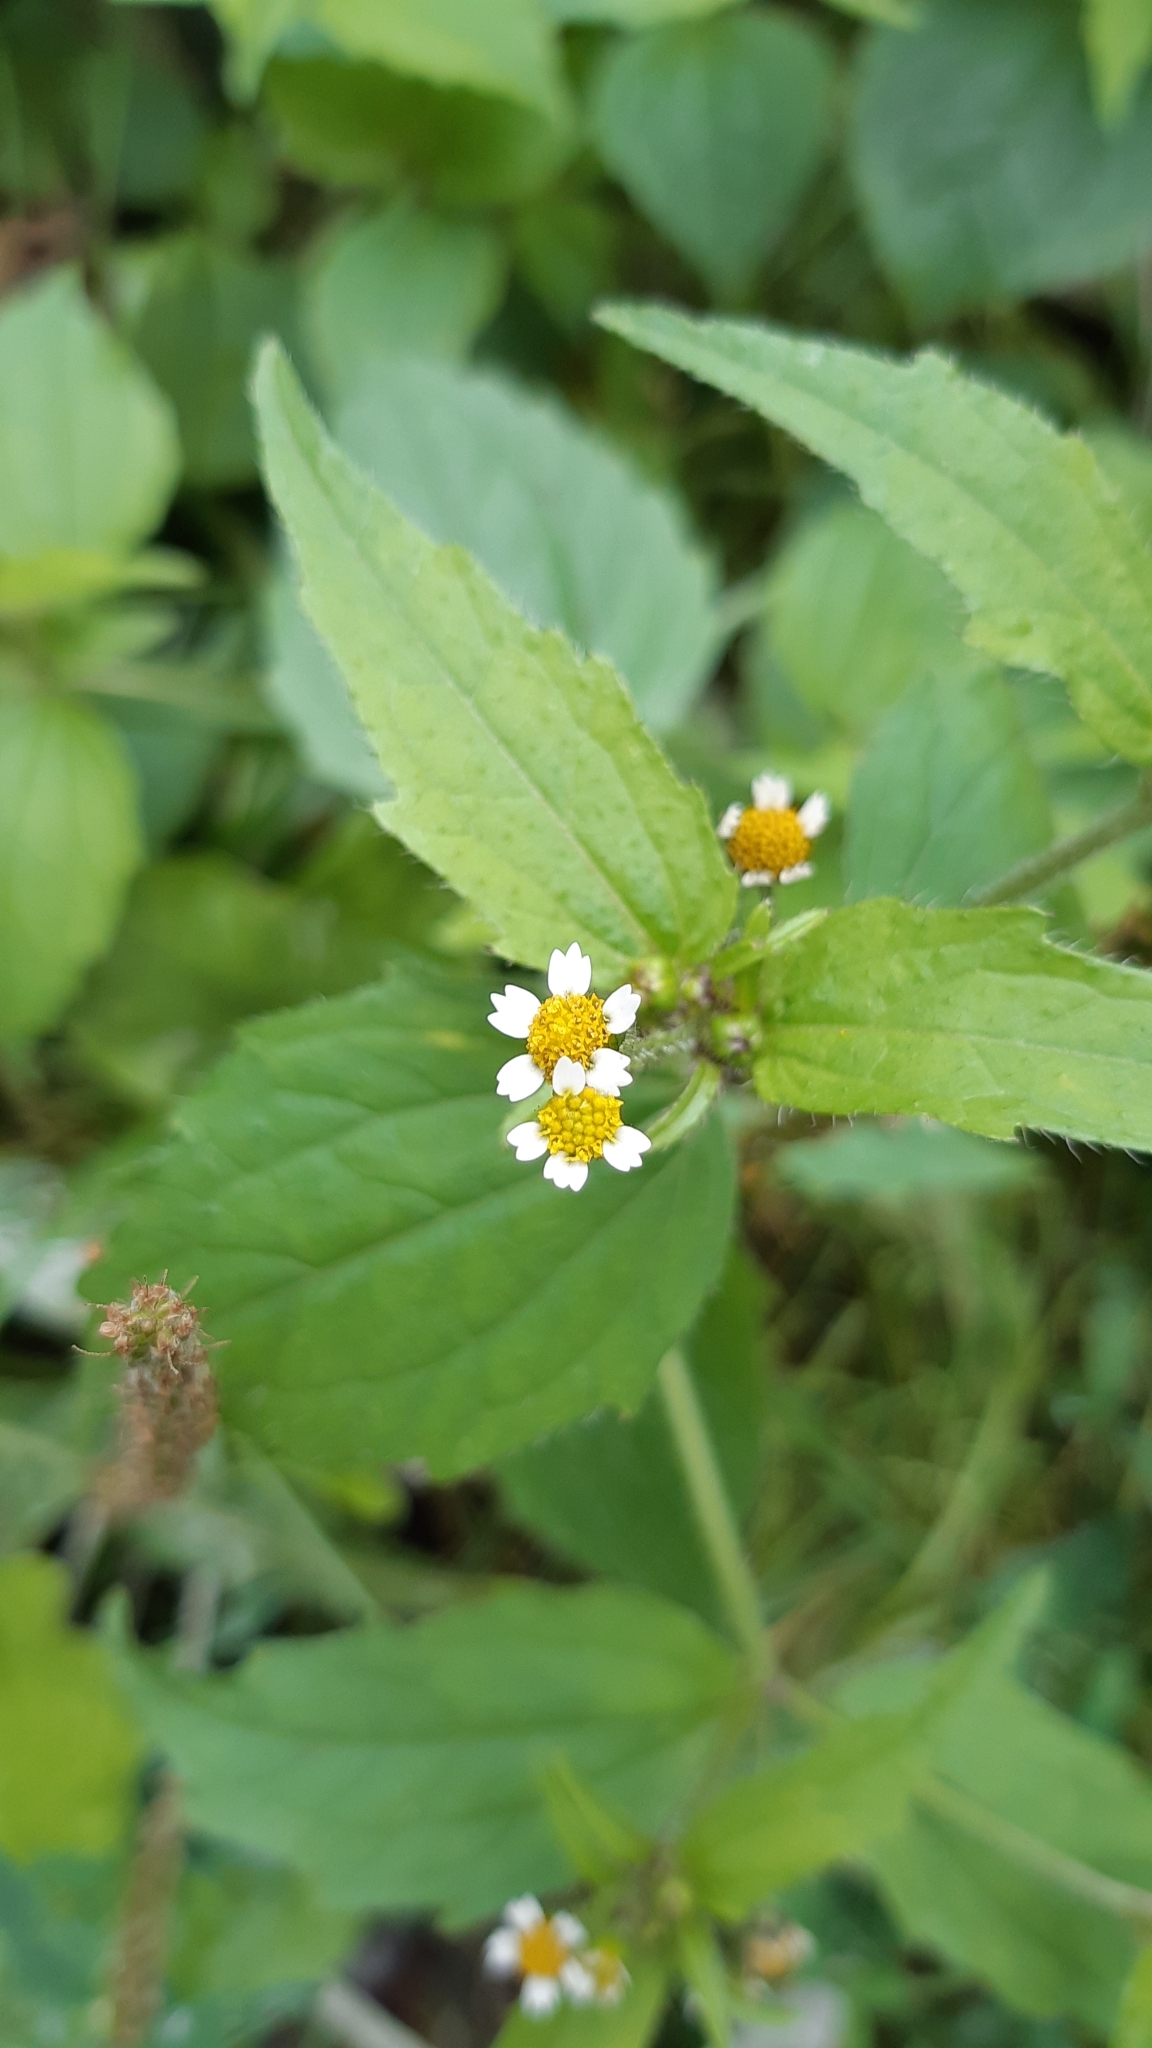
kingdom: Plantae
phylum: Tracheophyta
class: Magnoliopsida
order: Asterales
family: Asteraceae
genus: Galinsoga
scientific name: Galinsoga quadriradiata
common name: Shaggy soldier
